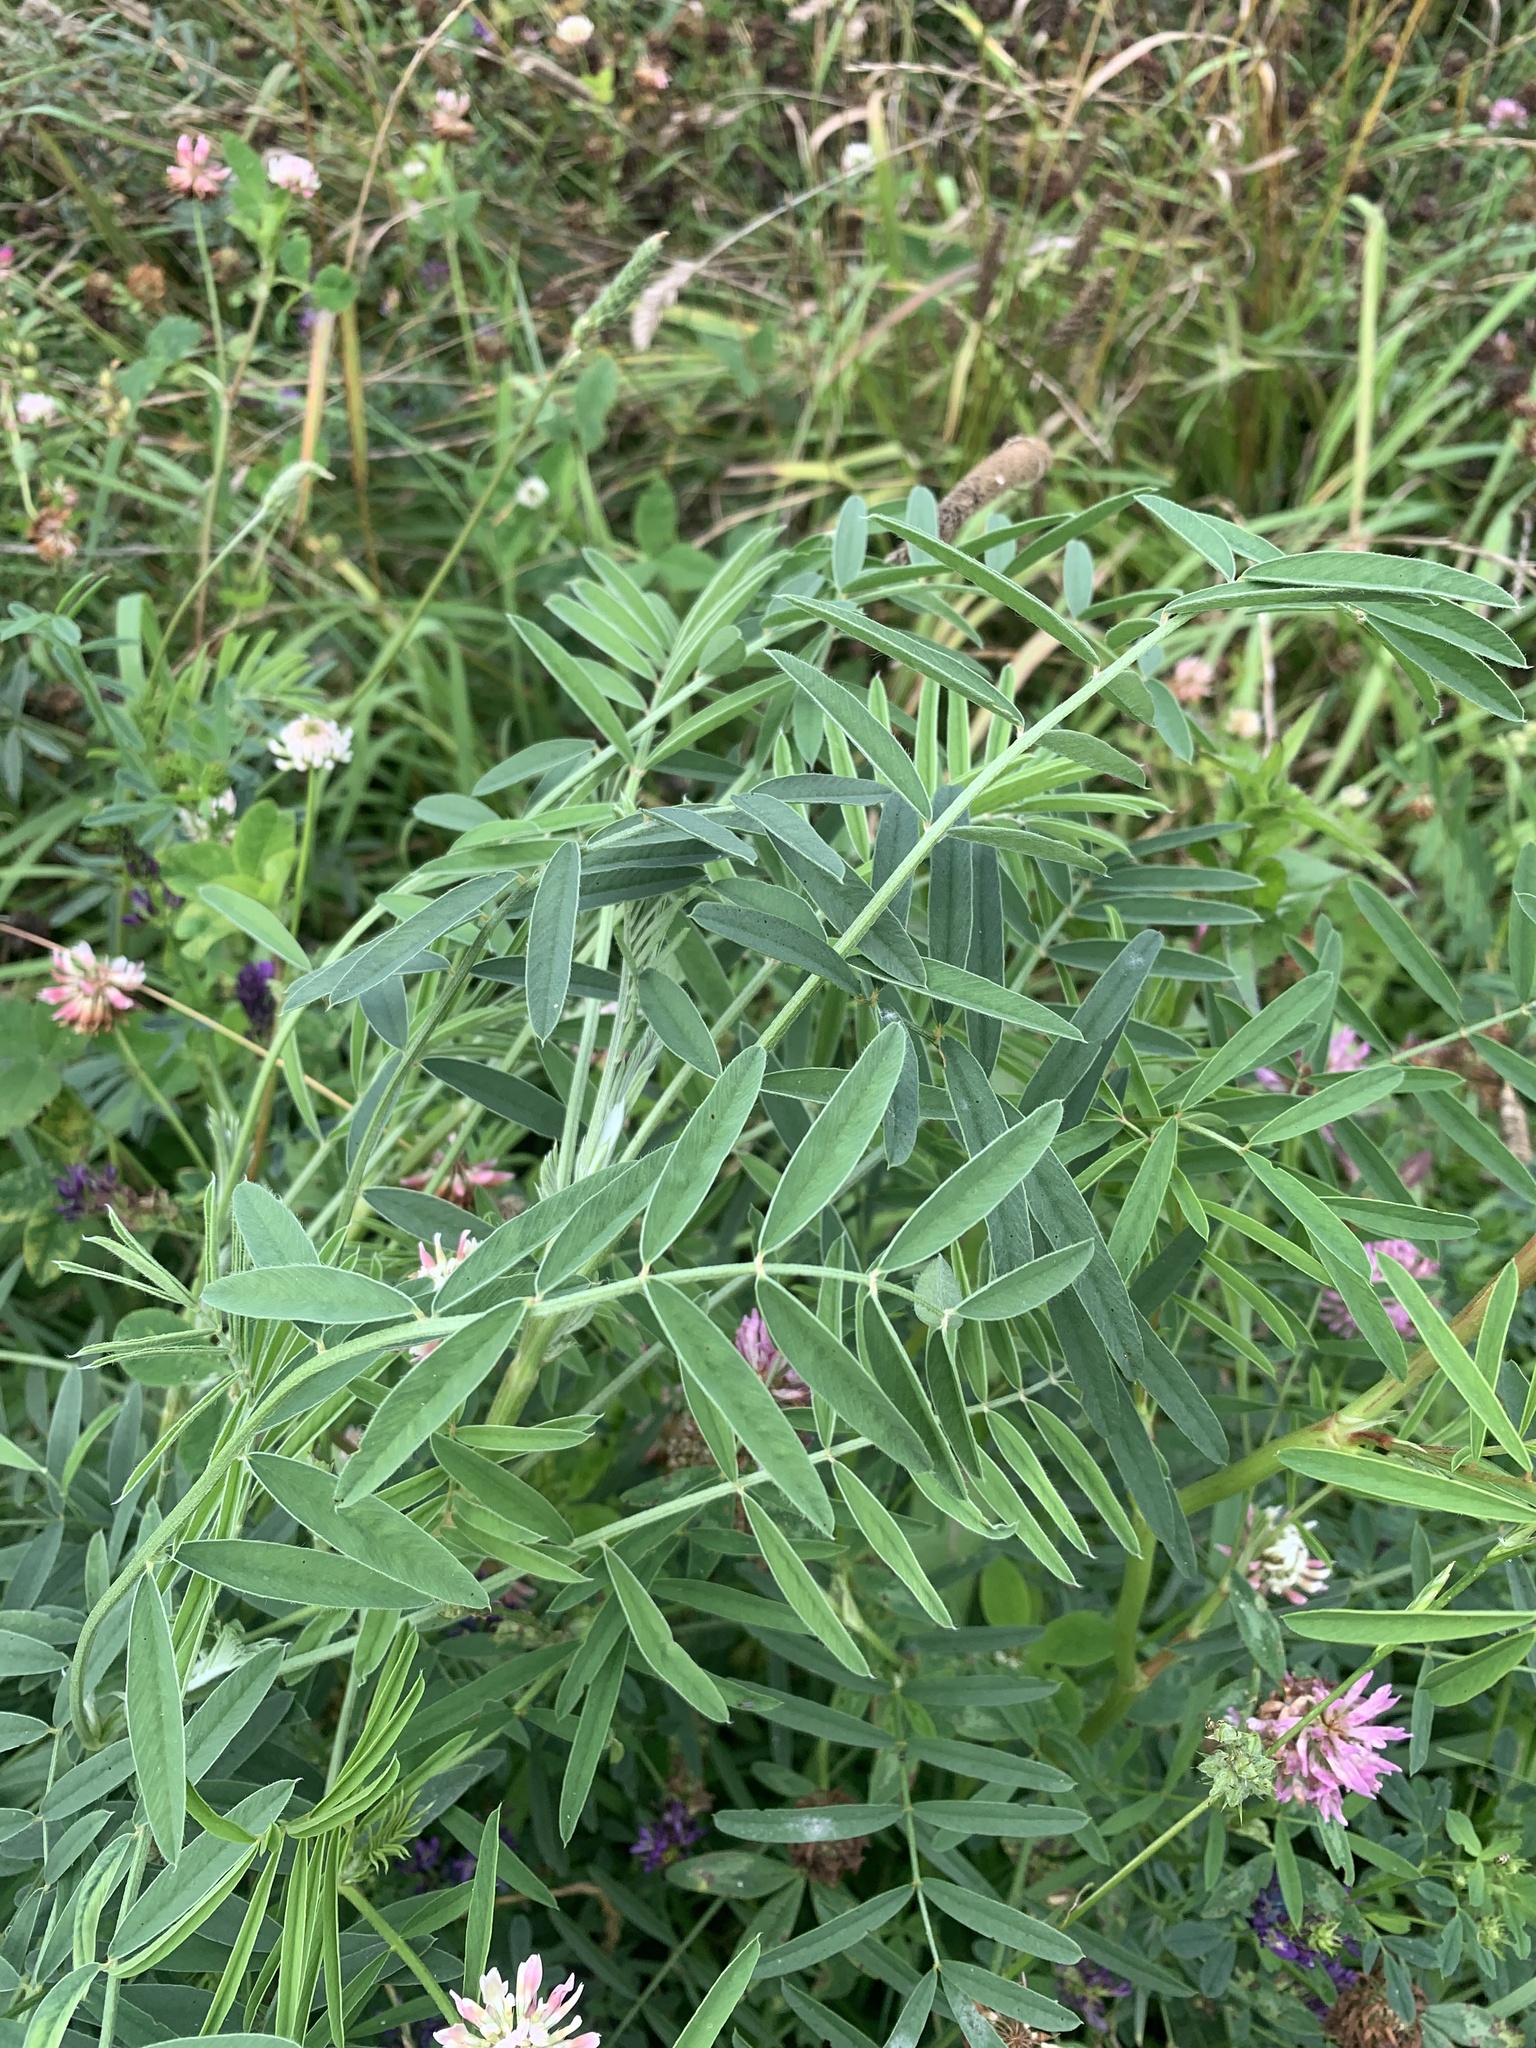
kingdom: Plantae
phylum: Tracheophyta
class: Magnoliopsida
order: Fabales
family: Fabaceae
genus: Vicia
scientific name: Vicia cracca
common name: Bird vetch
